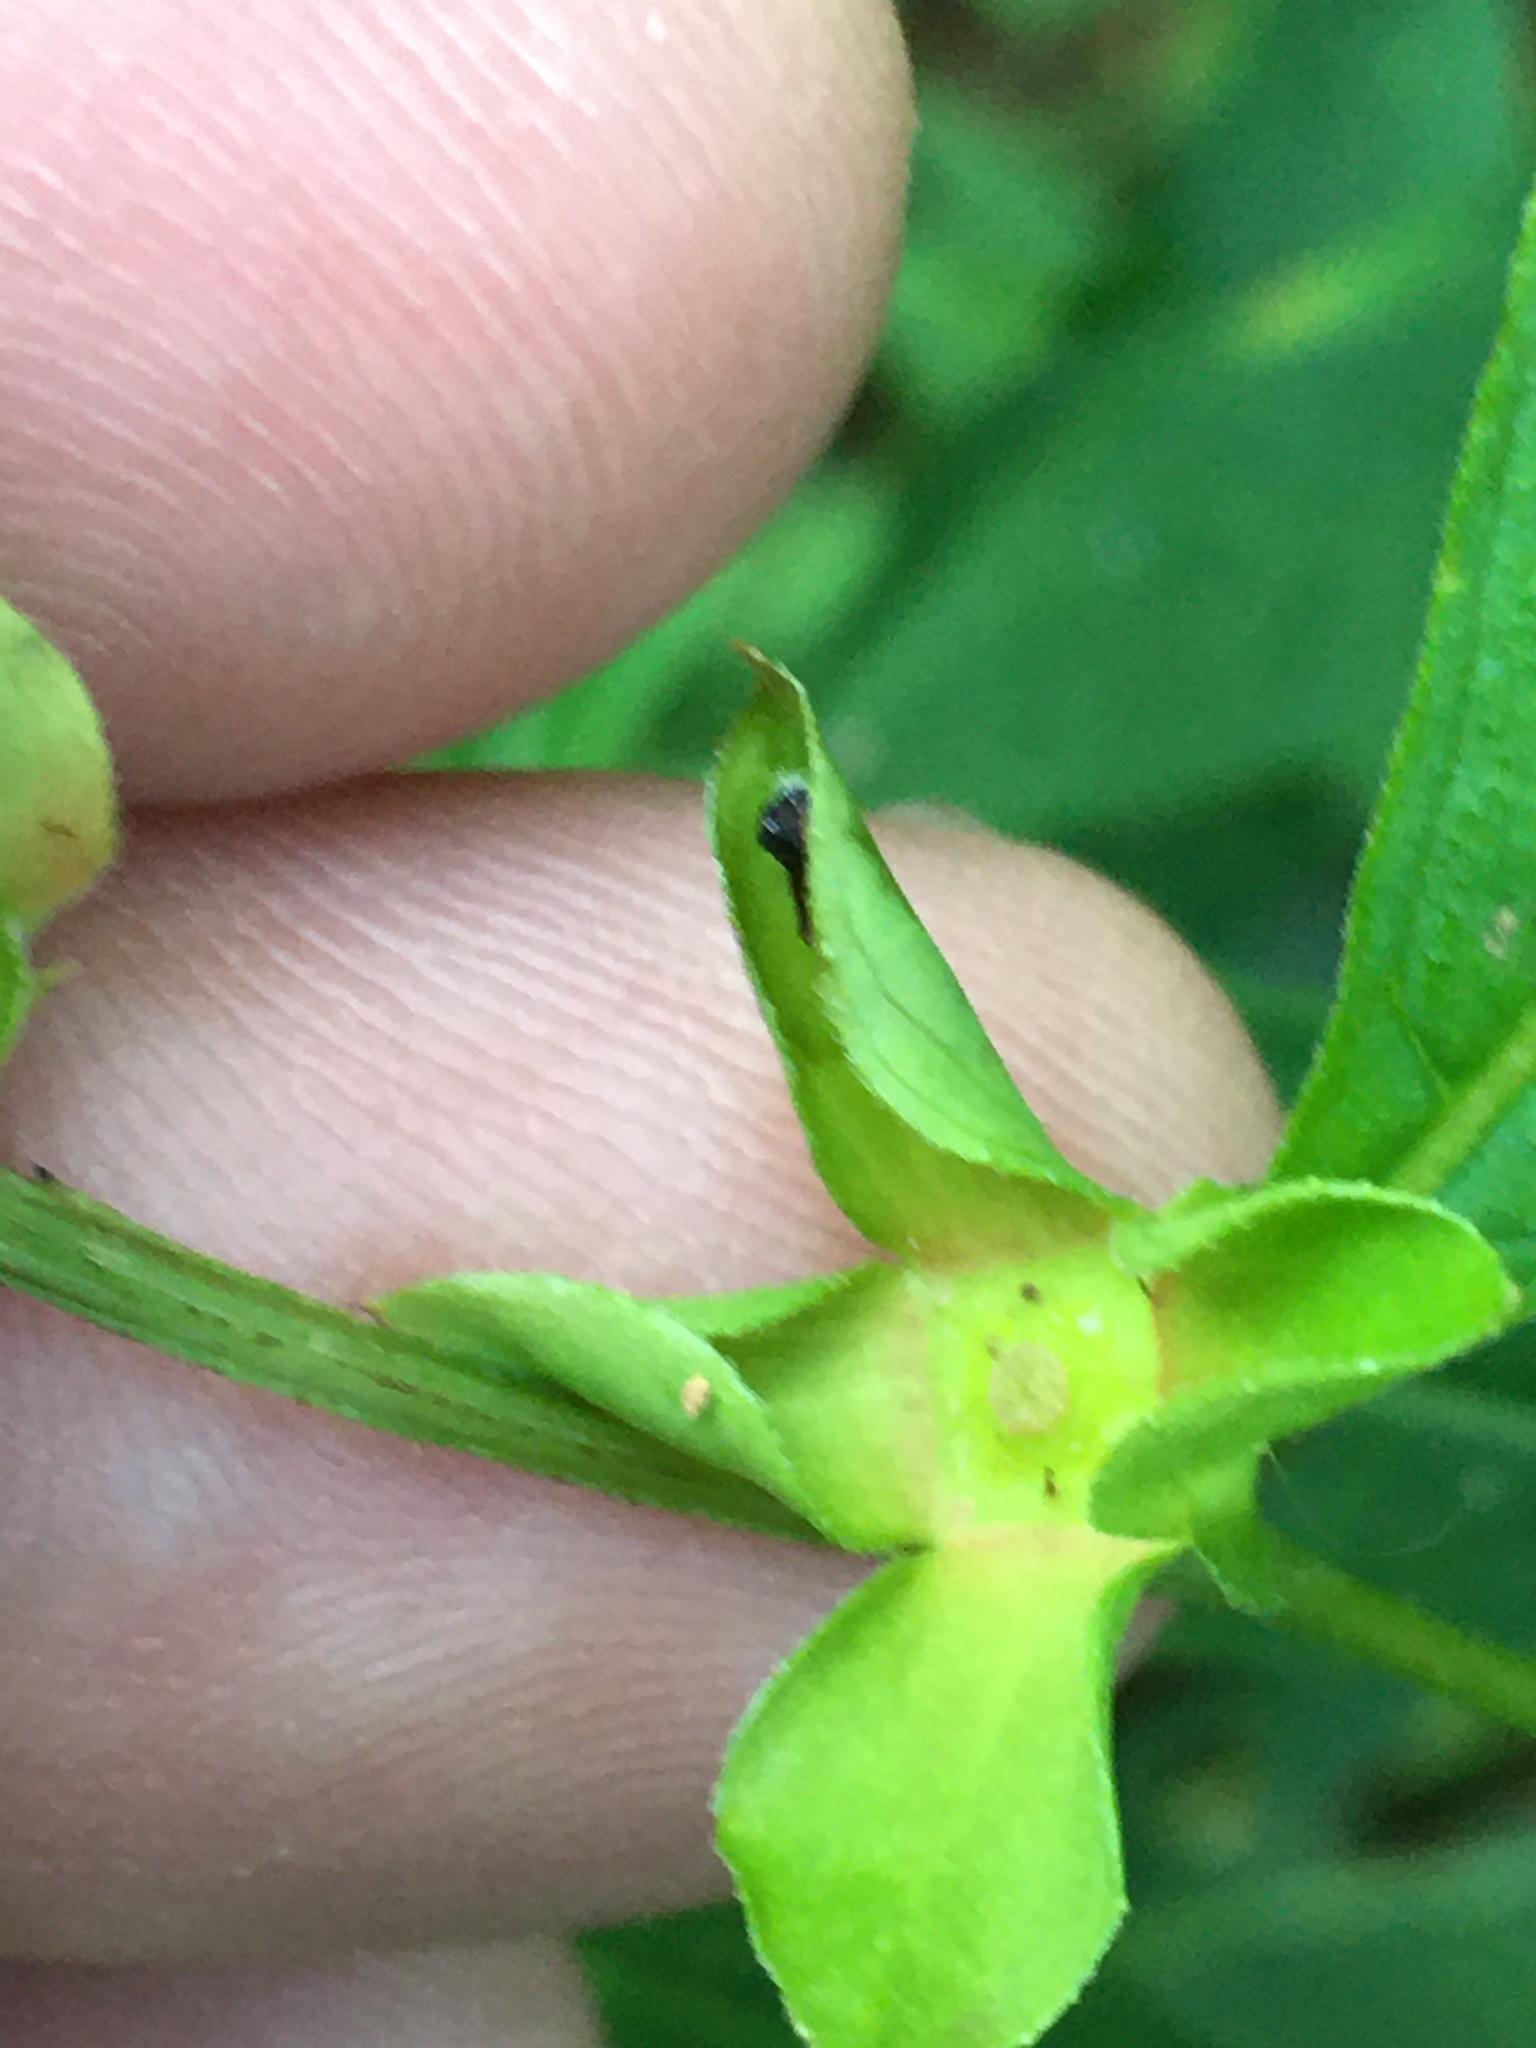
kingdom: Plantae
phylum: Tracheophyta
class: Magnoliopsida
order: Myrtales
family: Onagraceae
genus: Ludwigia
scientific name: Ludwigia alternifolia
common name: Rattlebox
